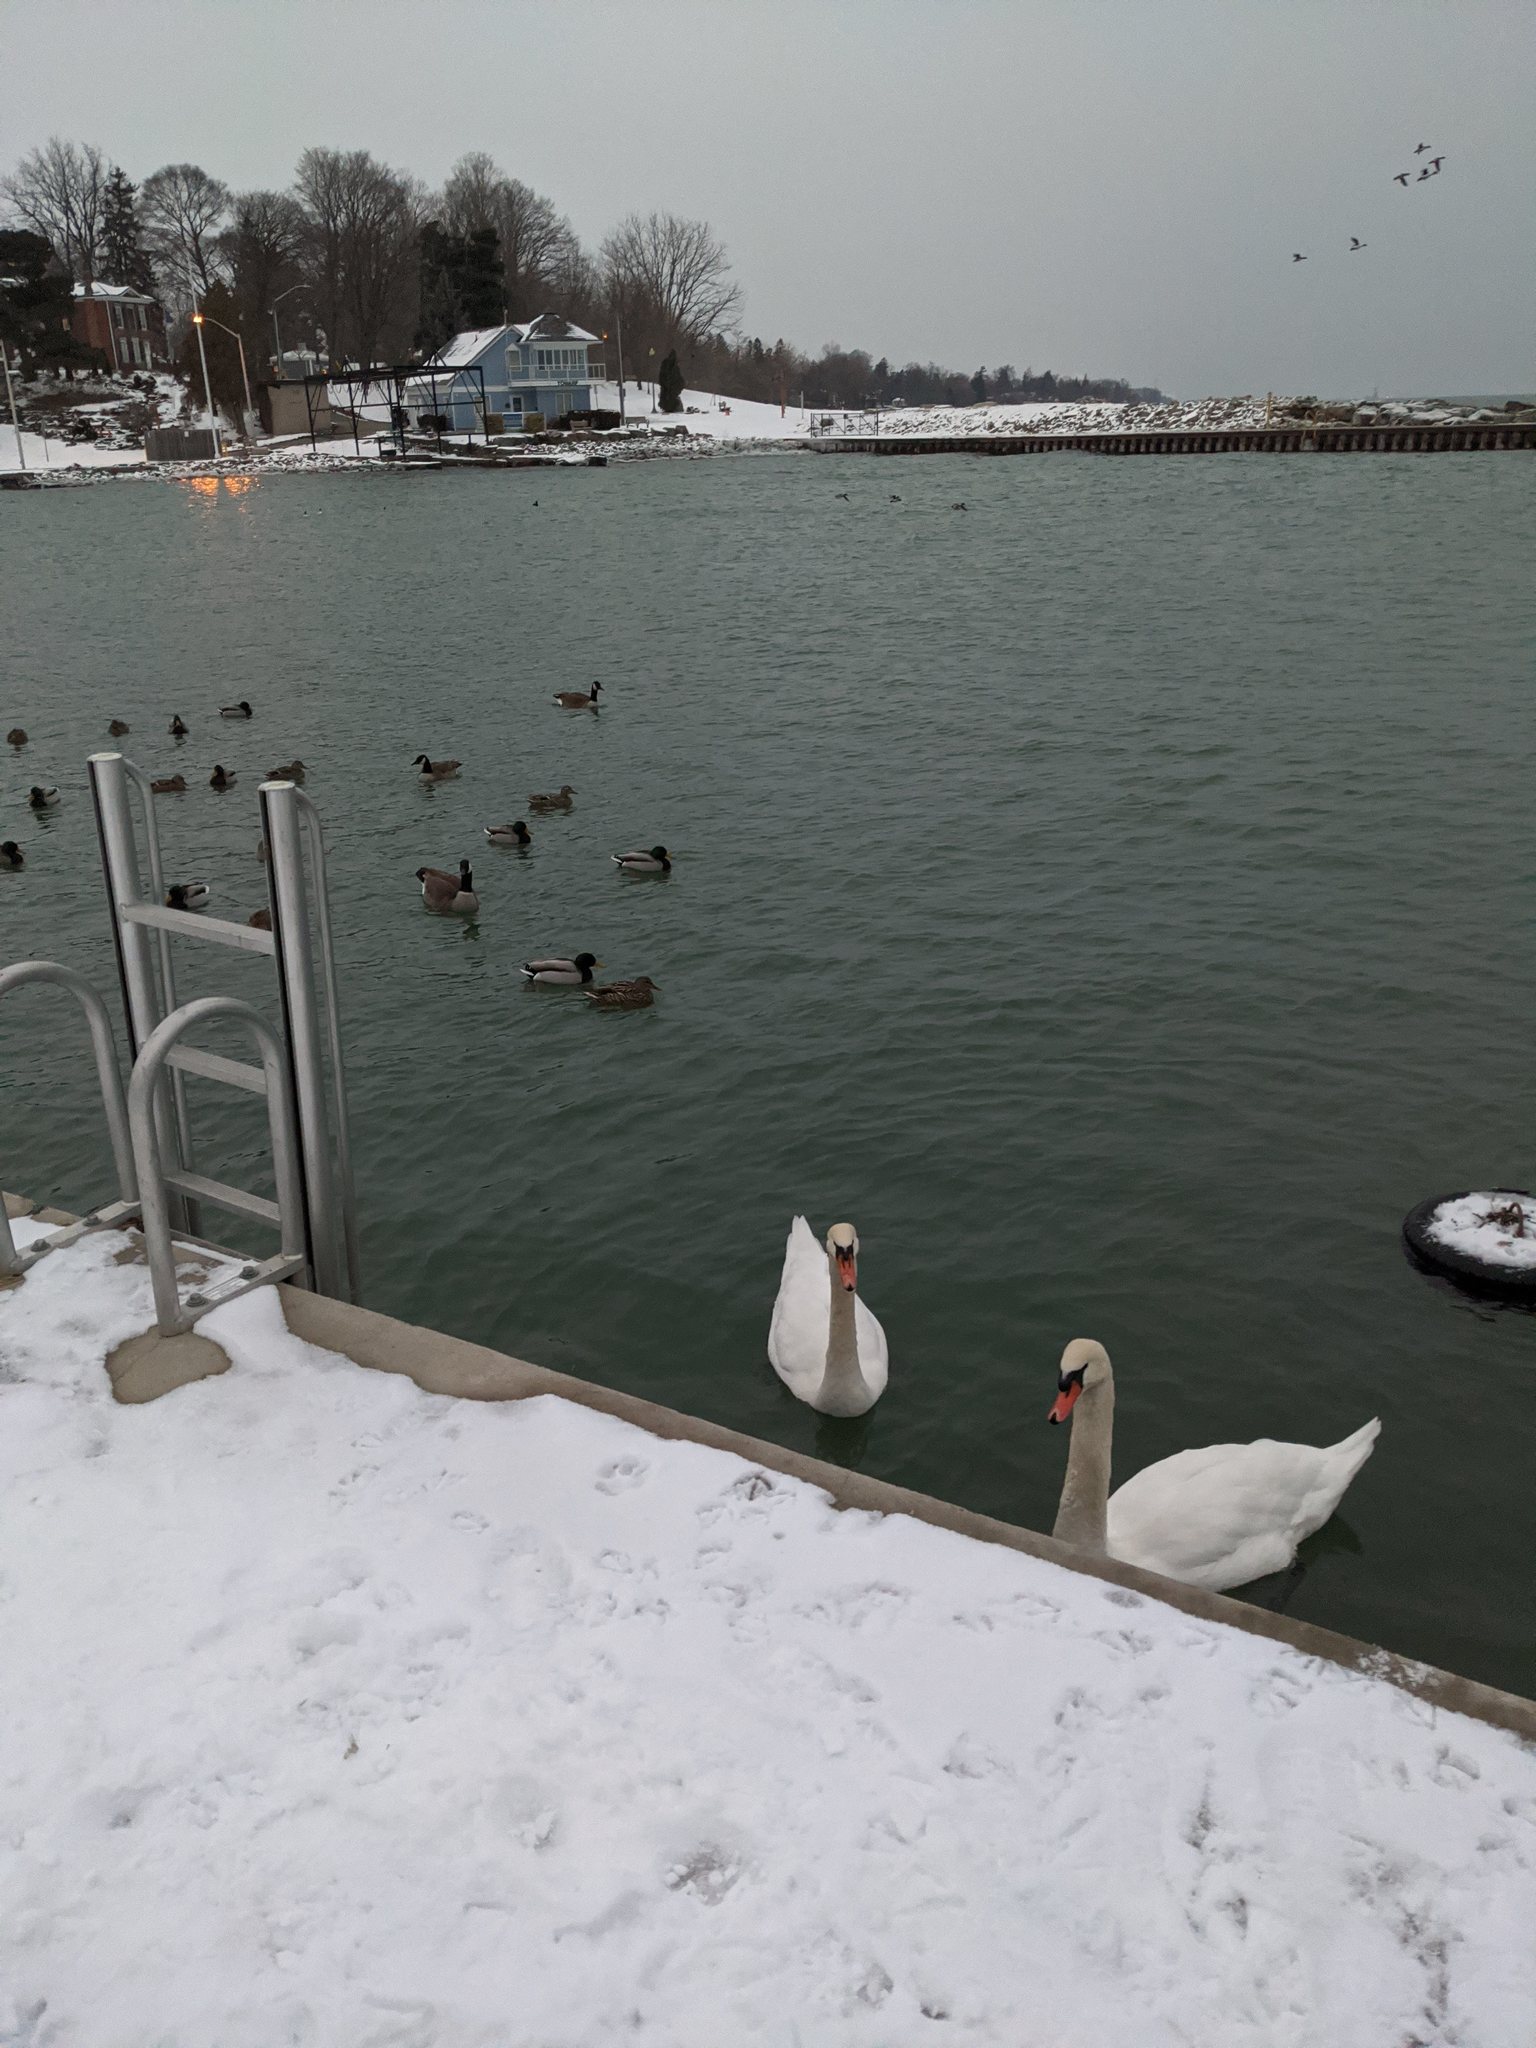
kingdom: Animalia
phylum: Chordata
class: Aves
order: Anseriformes
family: Anatidae
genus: Cygnus
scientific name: Cygnus olor
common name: Mute swan
